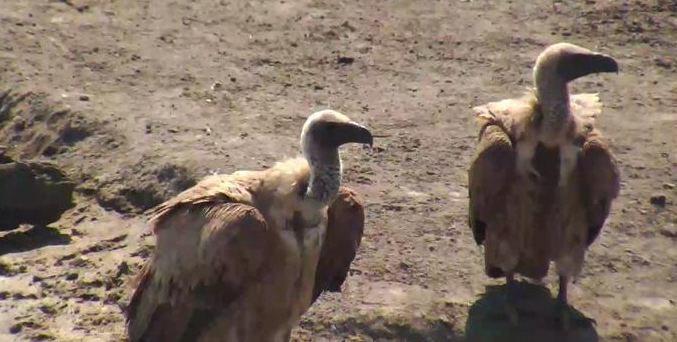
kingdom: Animalia
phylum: Chordata
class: Aves
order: Accipitriformes
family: Accipitridae
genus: Gyps
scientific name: Gyps africanus
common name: White-backed vulture
